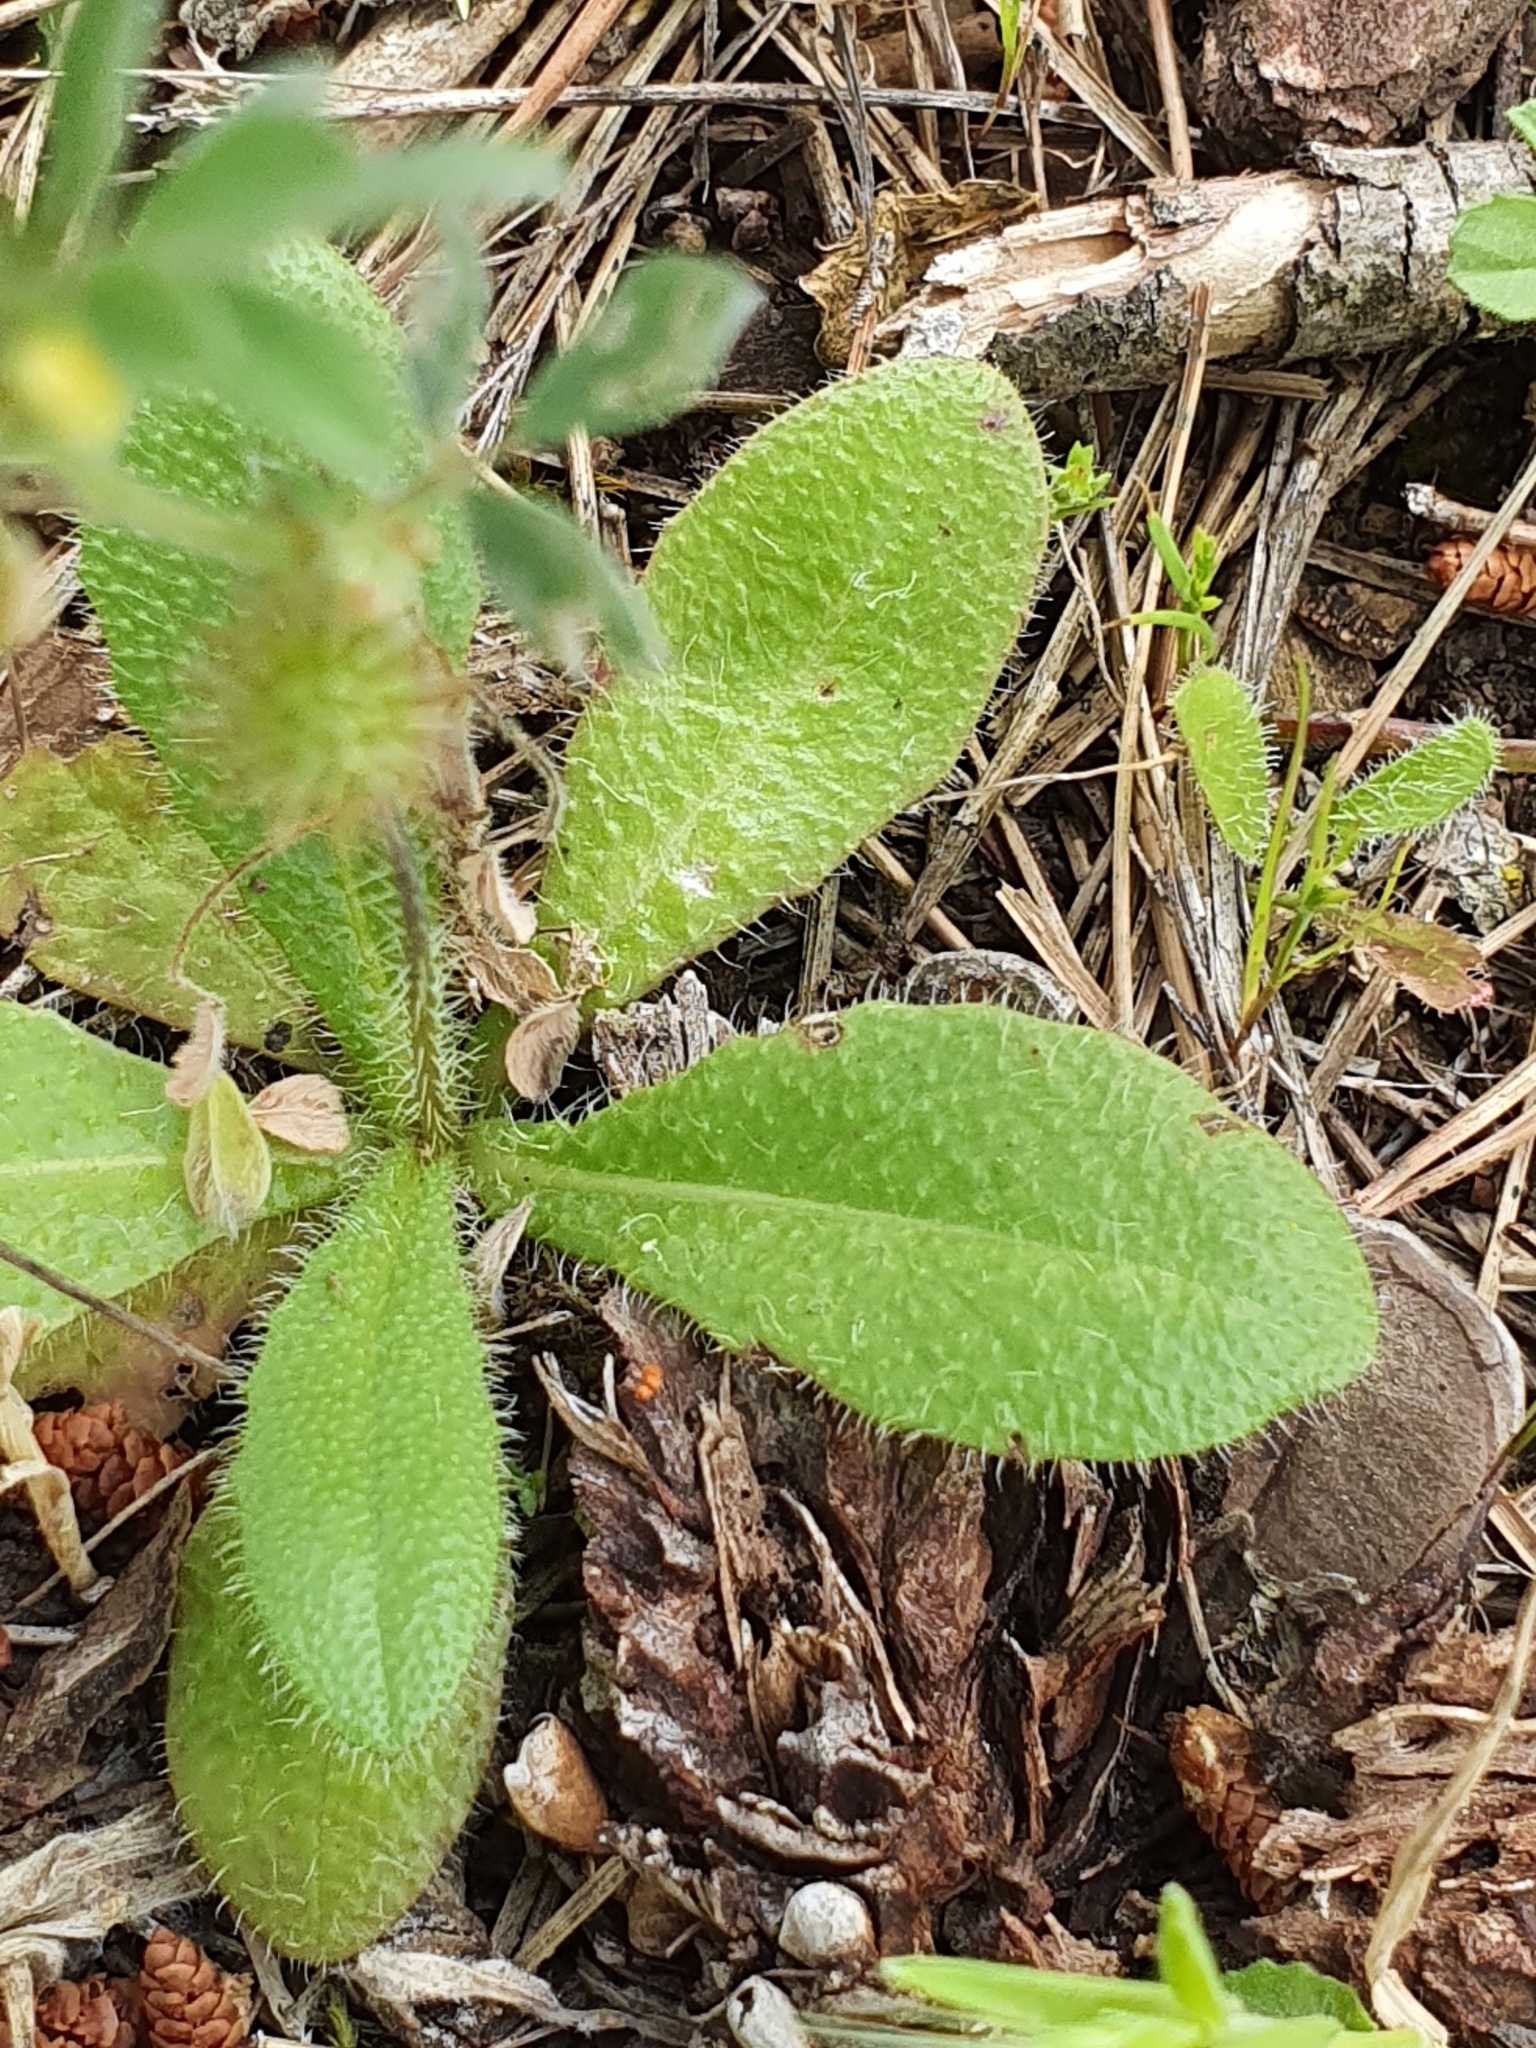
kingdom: Plantae
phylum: Tracheophyta
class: Magnoliopsida
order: Fabales
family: Fabaceae
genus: Medicago
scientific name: Medicago minima
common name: Little bur-clover
